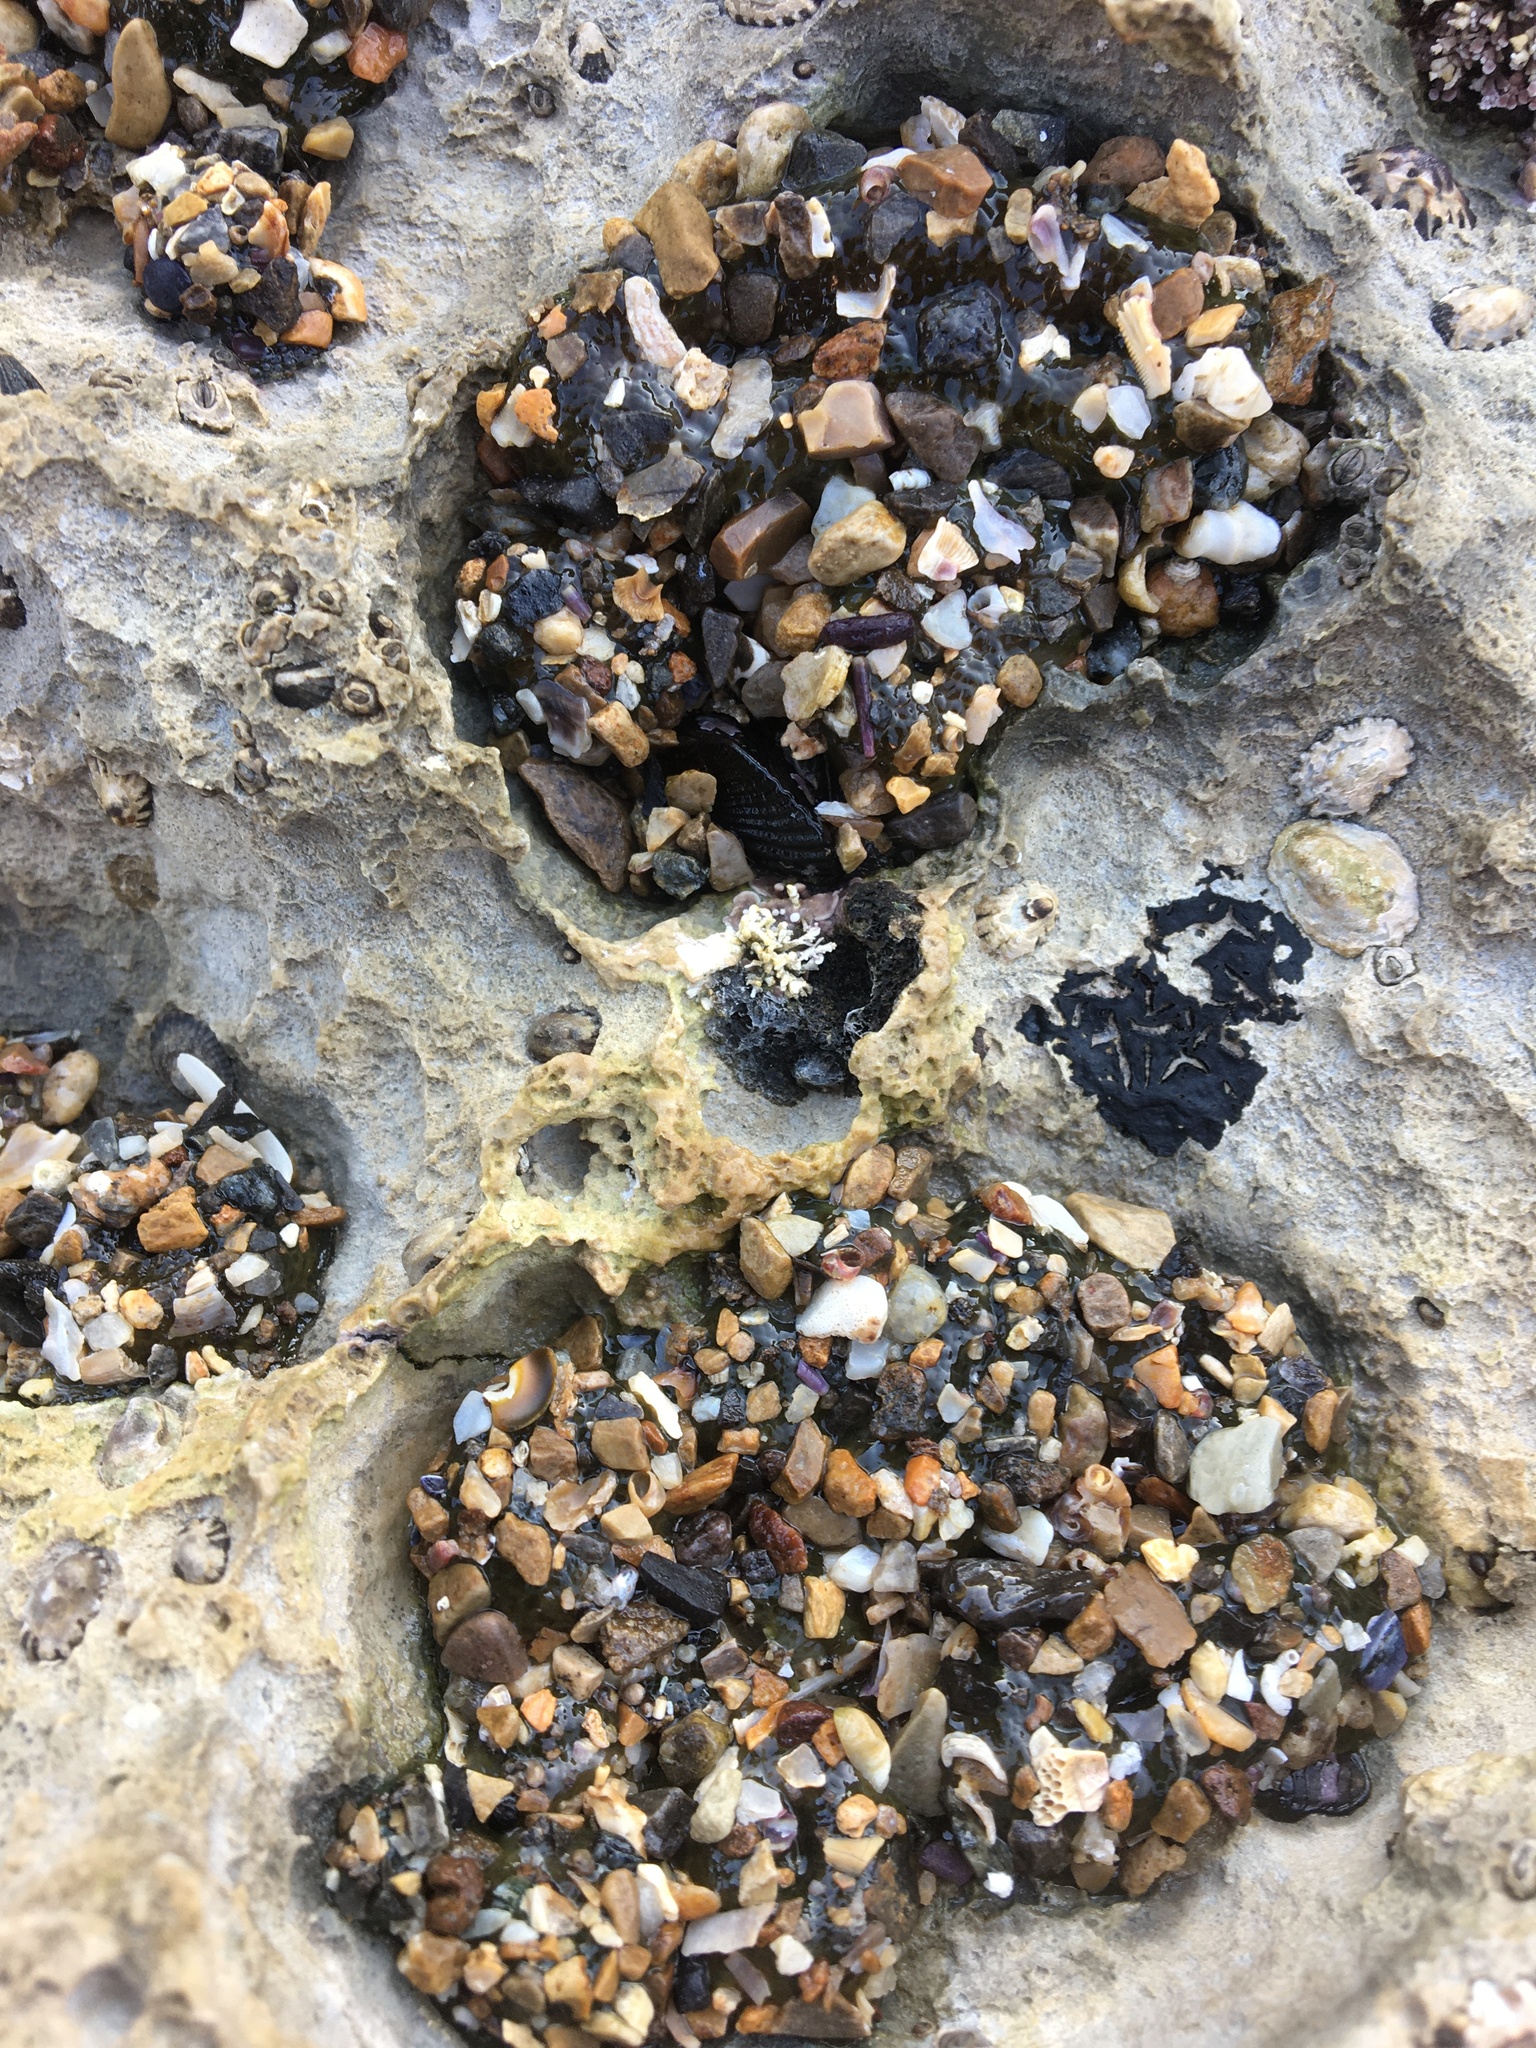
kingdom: Animalia
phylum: Cnidaria
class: Anthozoa
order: Actiniaria
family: Actiniidae
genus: Anthopleura
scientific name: Anthopleura elegantissima
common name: Clonal anemone
